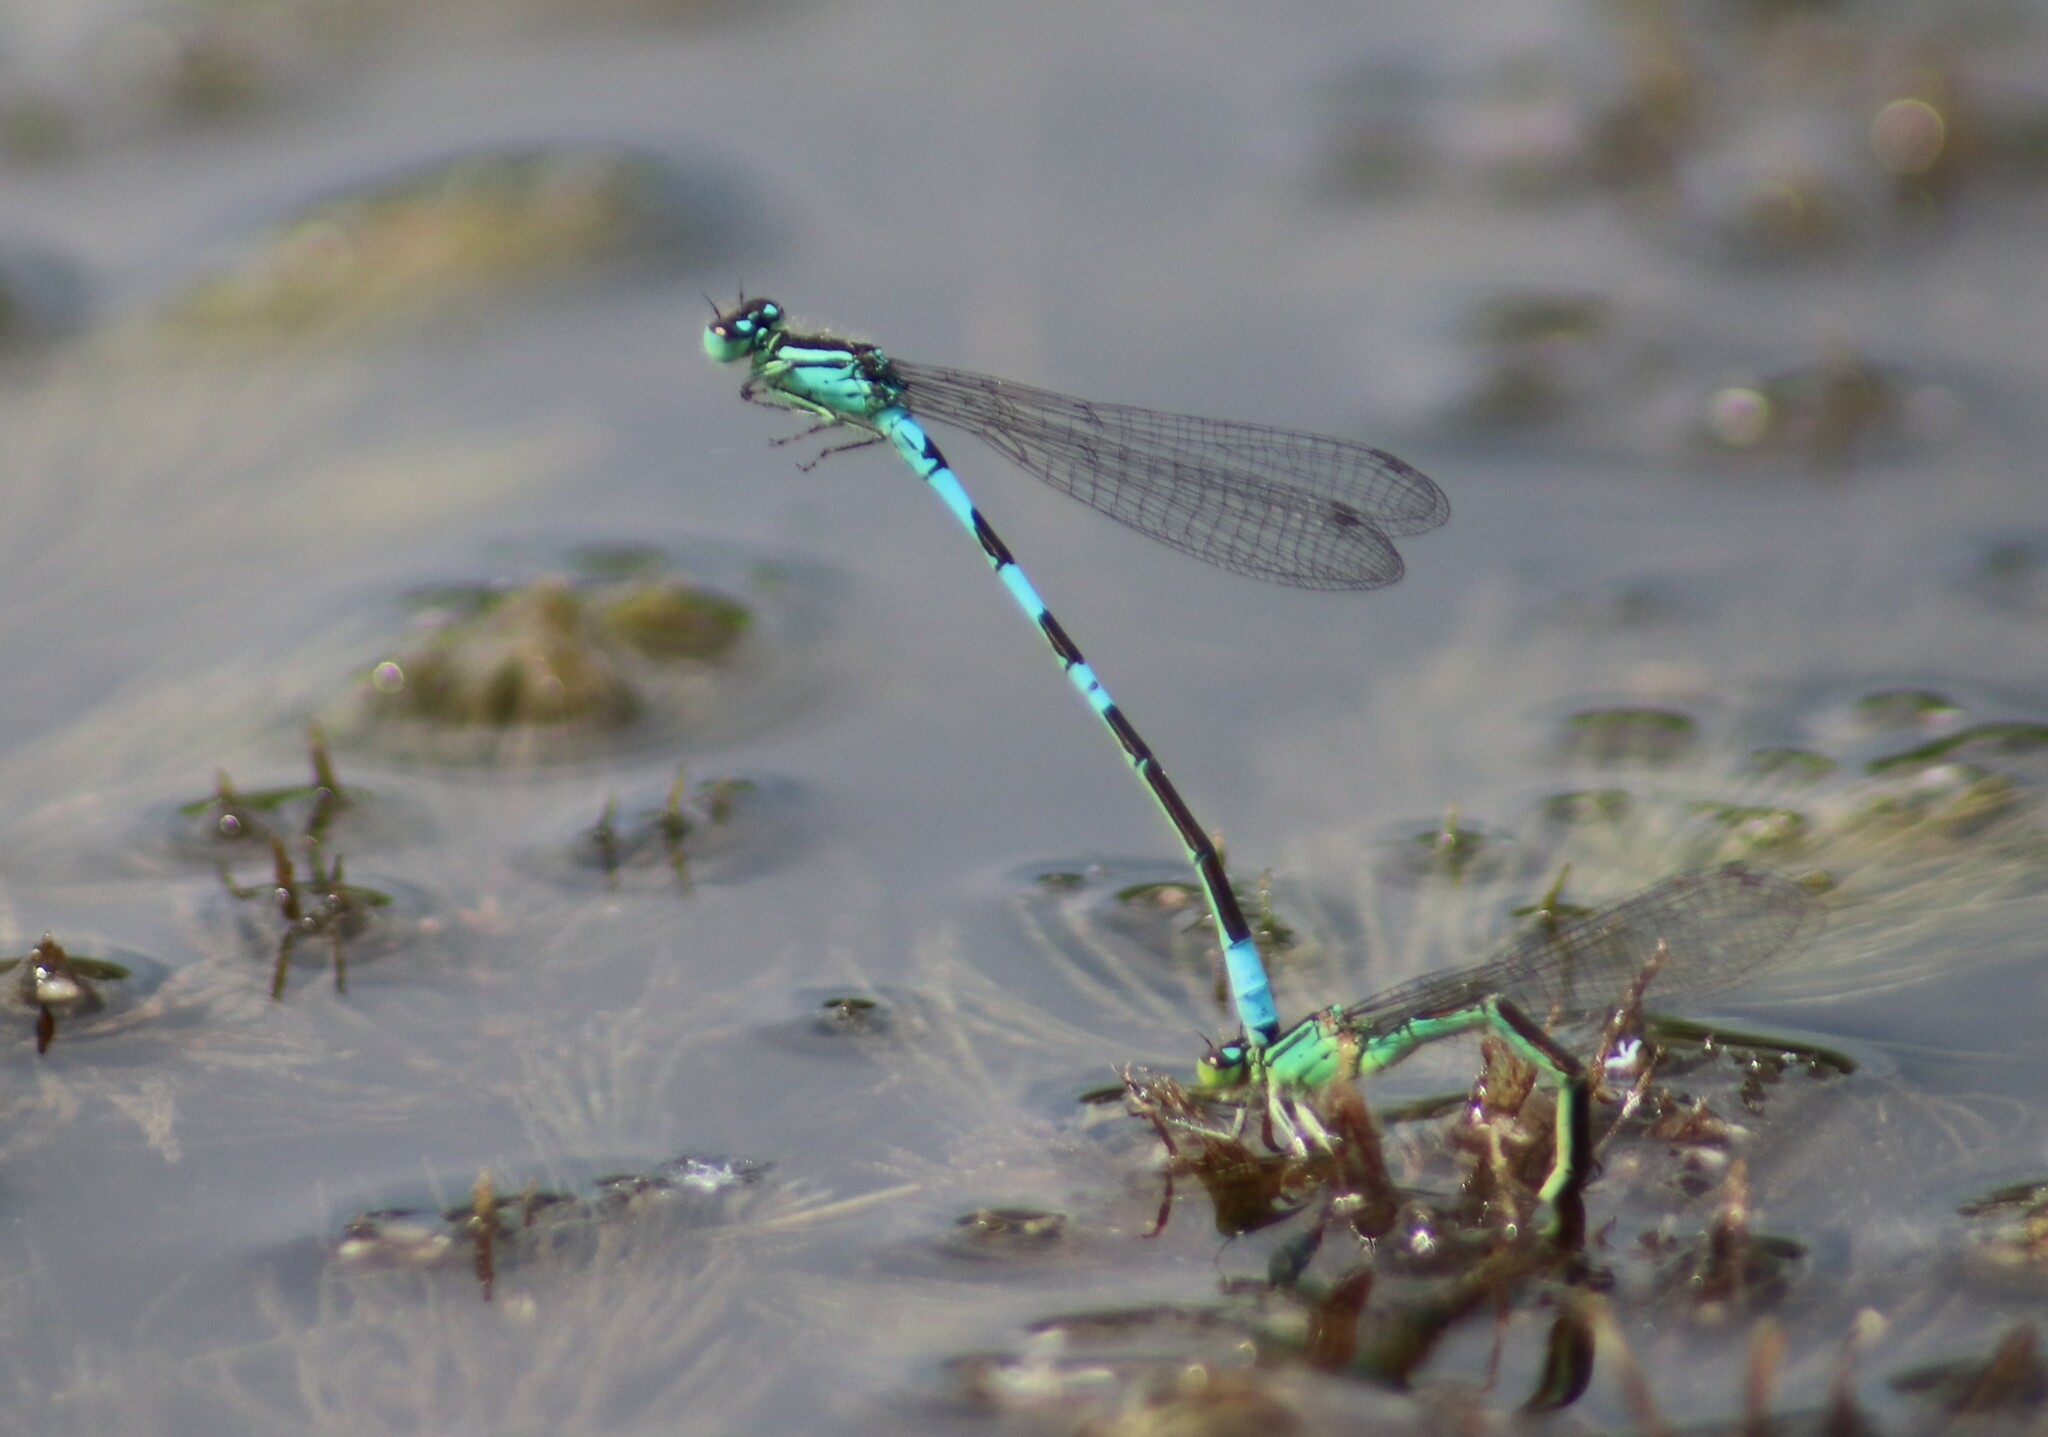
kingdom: Animalia
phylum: Arthropoda
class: Insecta
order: Odonata
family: Coenagrionidae
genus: Coenagrion
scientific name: Coenagrion resolutum
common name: Taiga bluet
